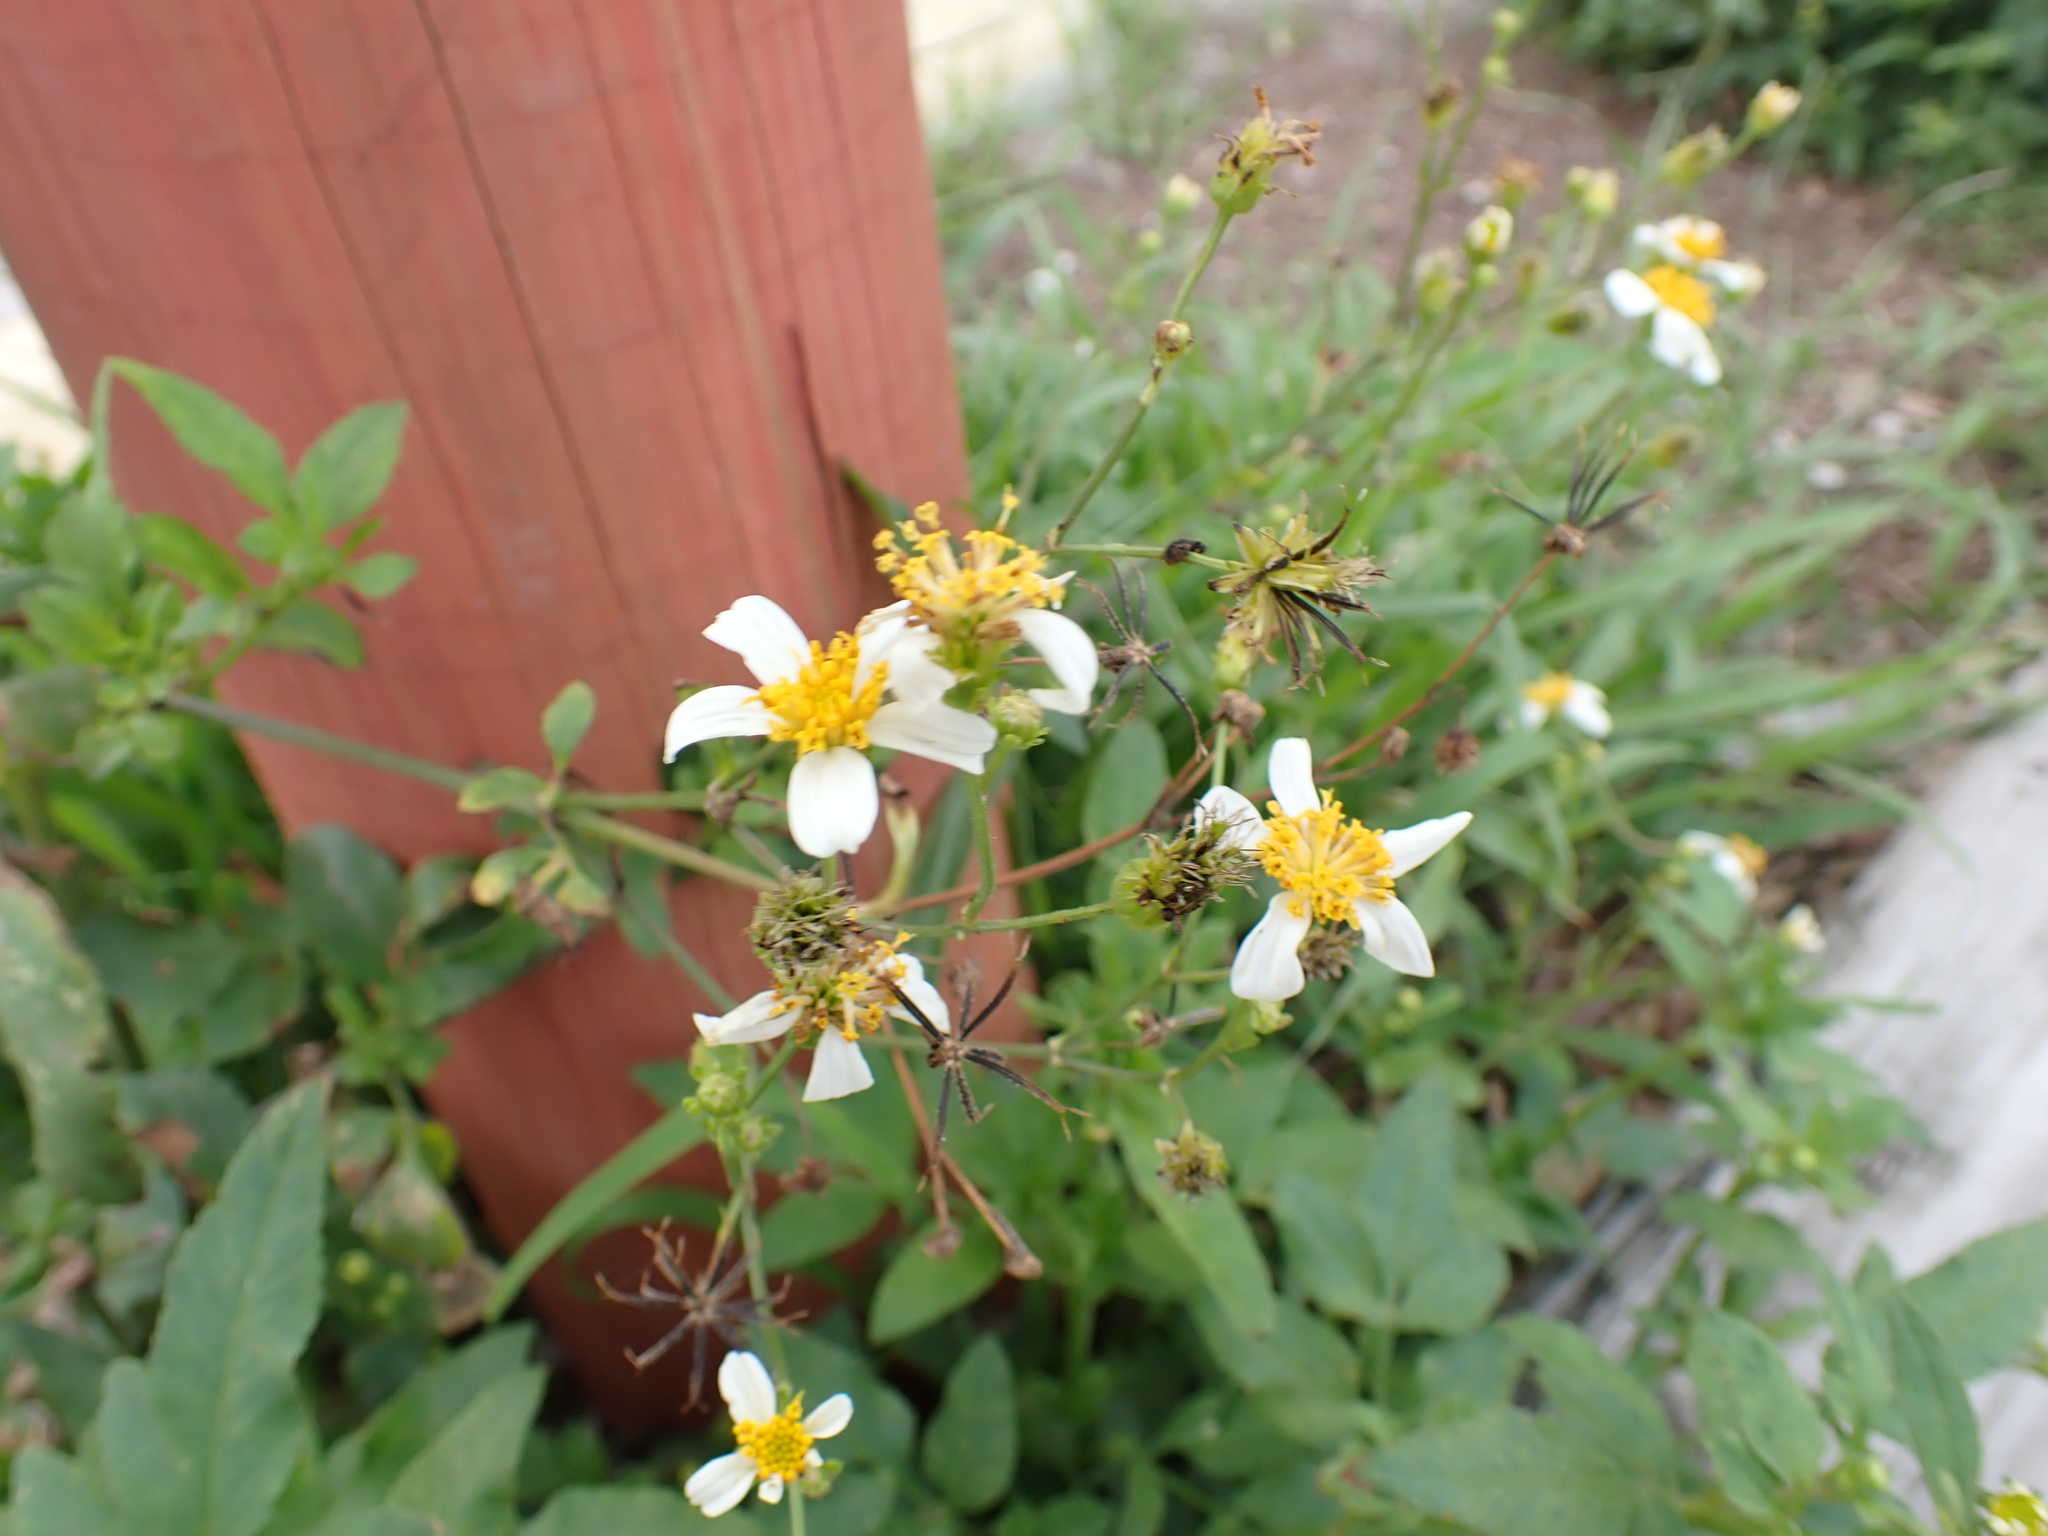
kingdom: Plantae
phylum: Tracheophyta
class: Magnoliopsida
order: Asterales
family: Asteraceae
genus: Bidens
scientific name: Bidens alba
